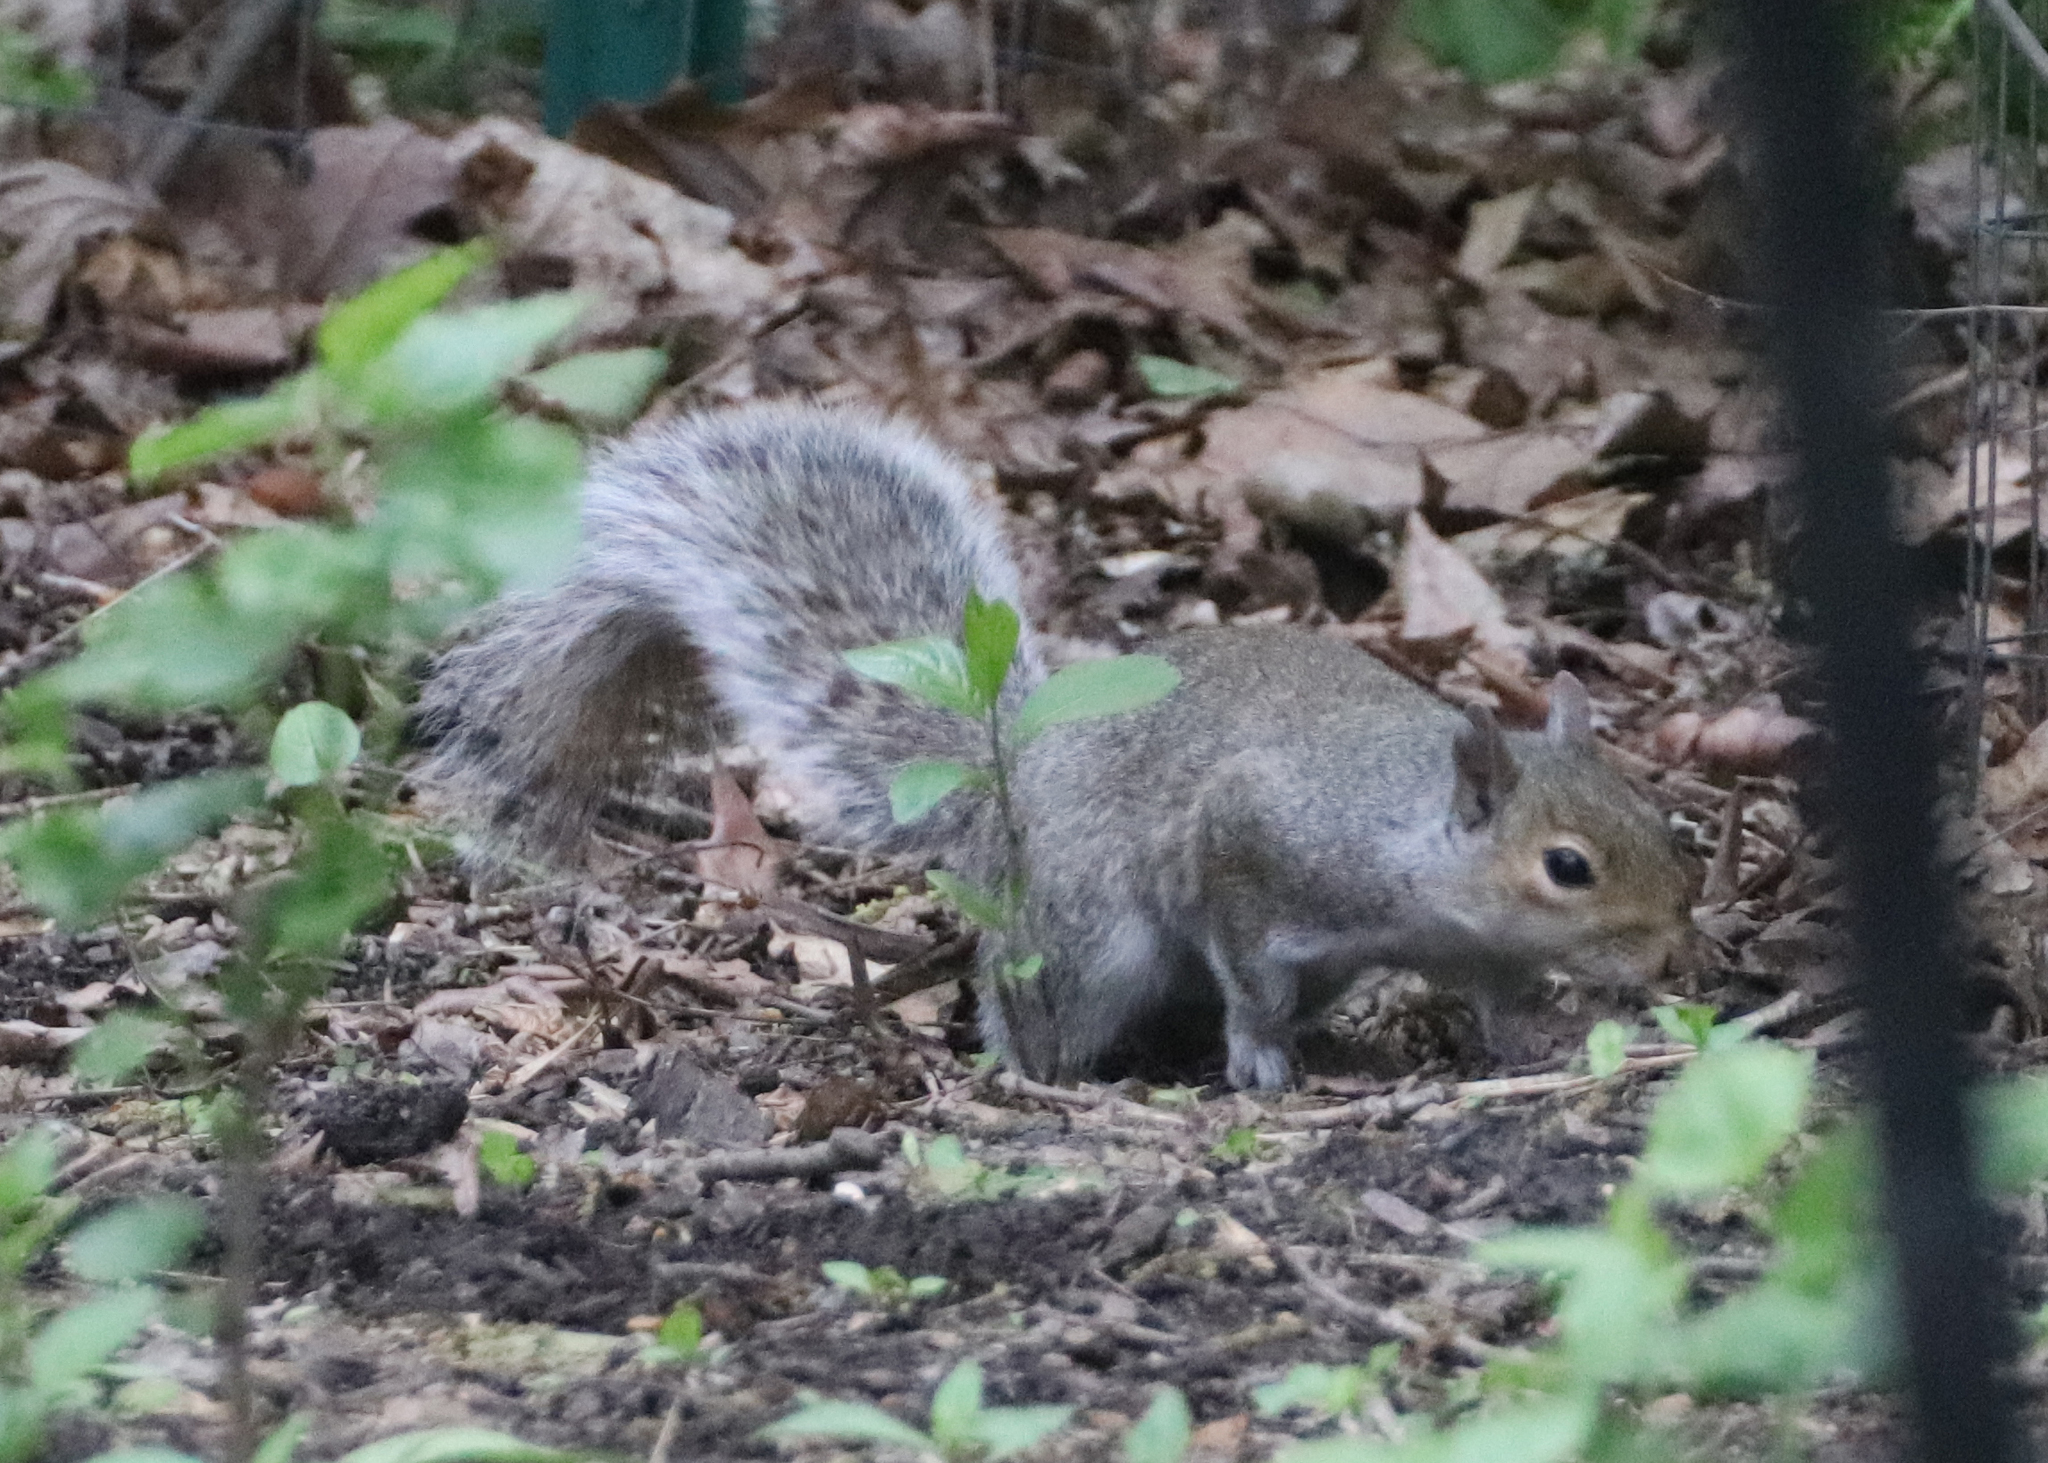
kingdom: Animalia
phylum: Chordata
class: Mammalia
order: Rodentia
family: Sciuridae
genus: Sciurus
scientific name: Sciurus carolinensis
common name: Eastern gray squirrel
